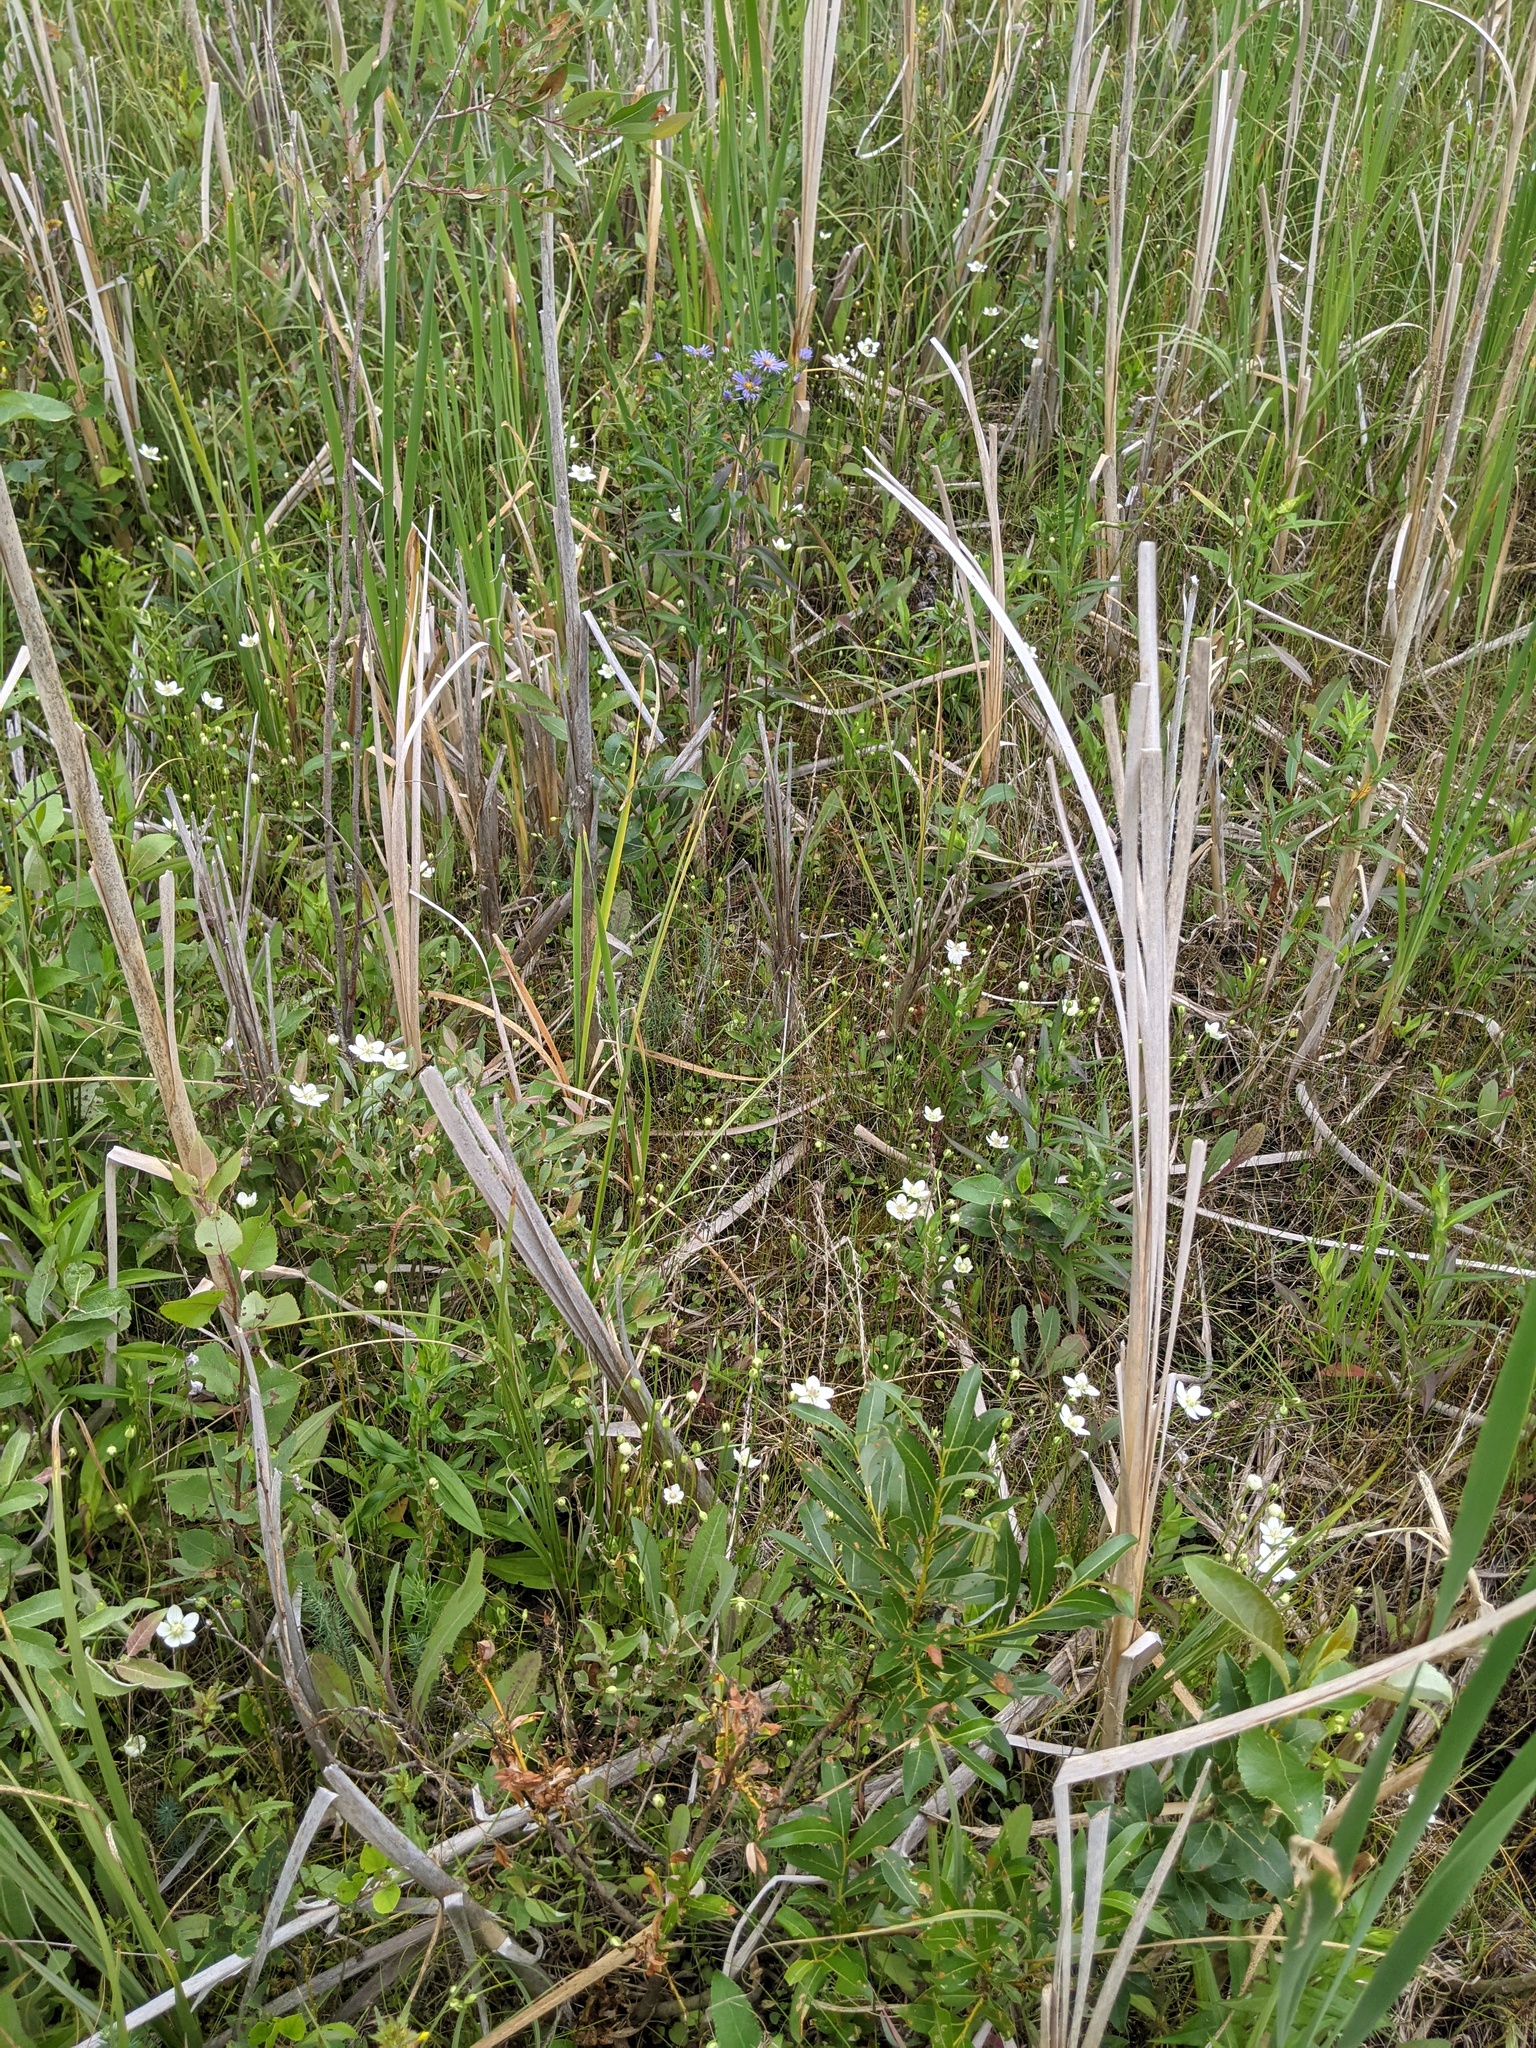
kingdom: Plantae
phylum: Tracheophyta
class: Magnoliopsida
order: Celastrales
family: Parnassiaceae
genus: Parnassia
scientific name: Parnassia palustris
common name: Grass-of-parnassus
